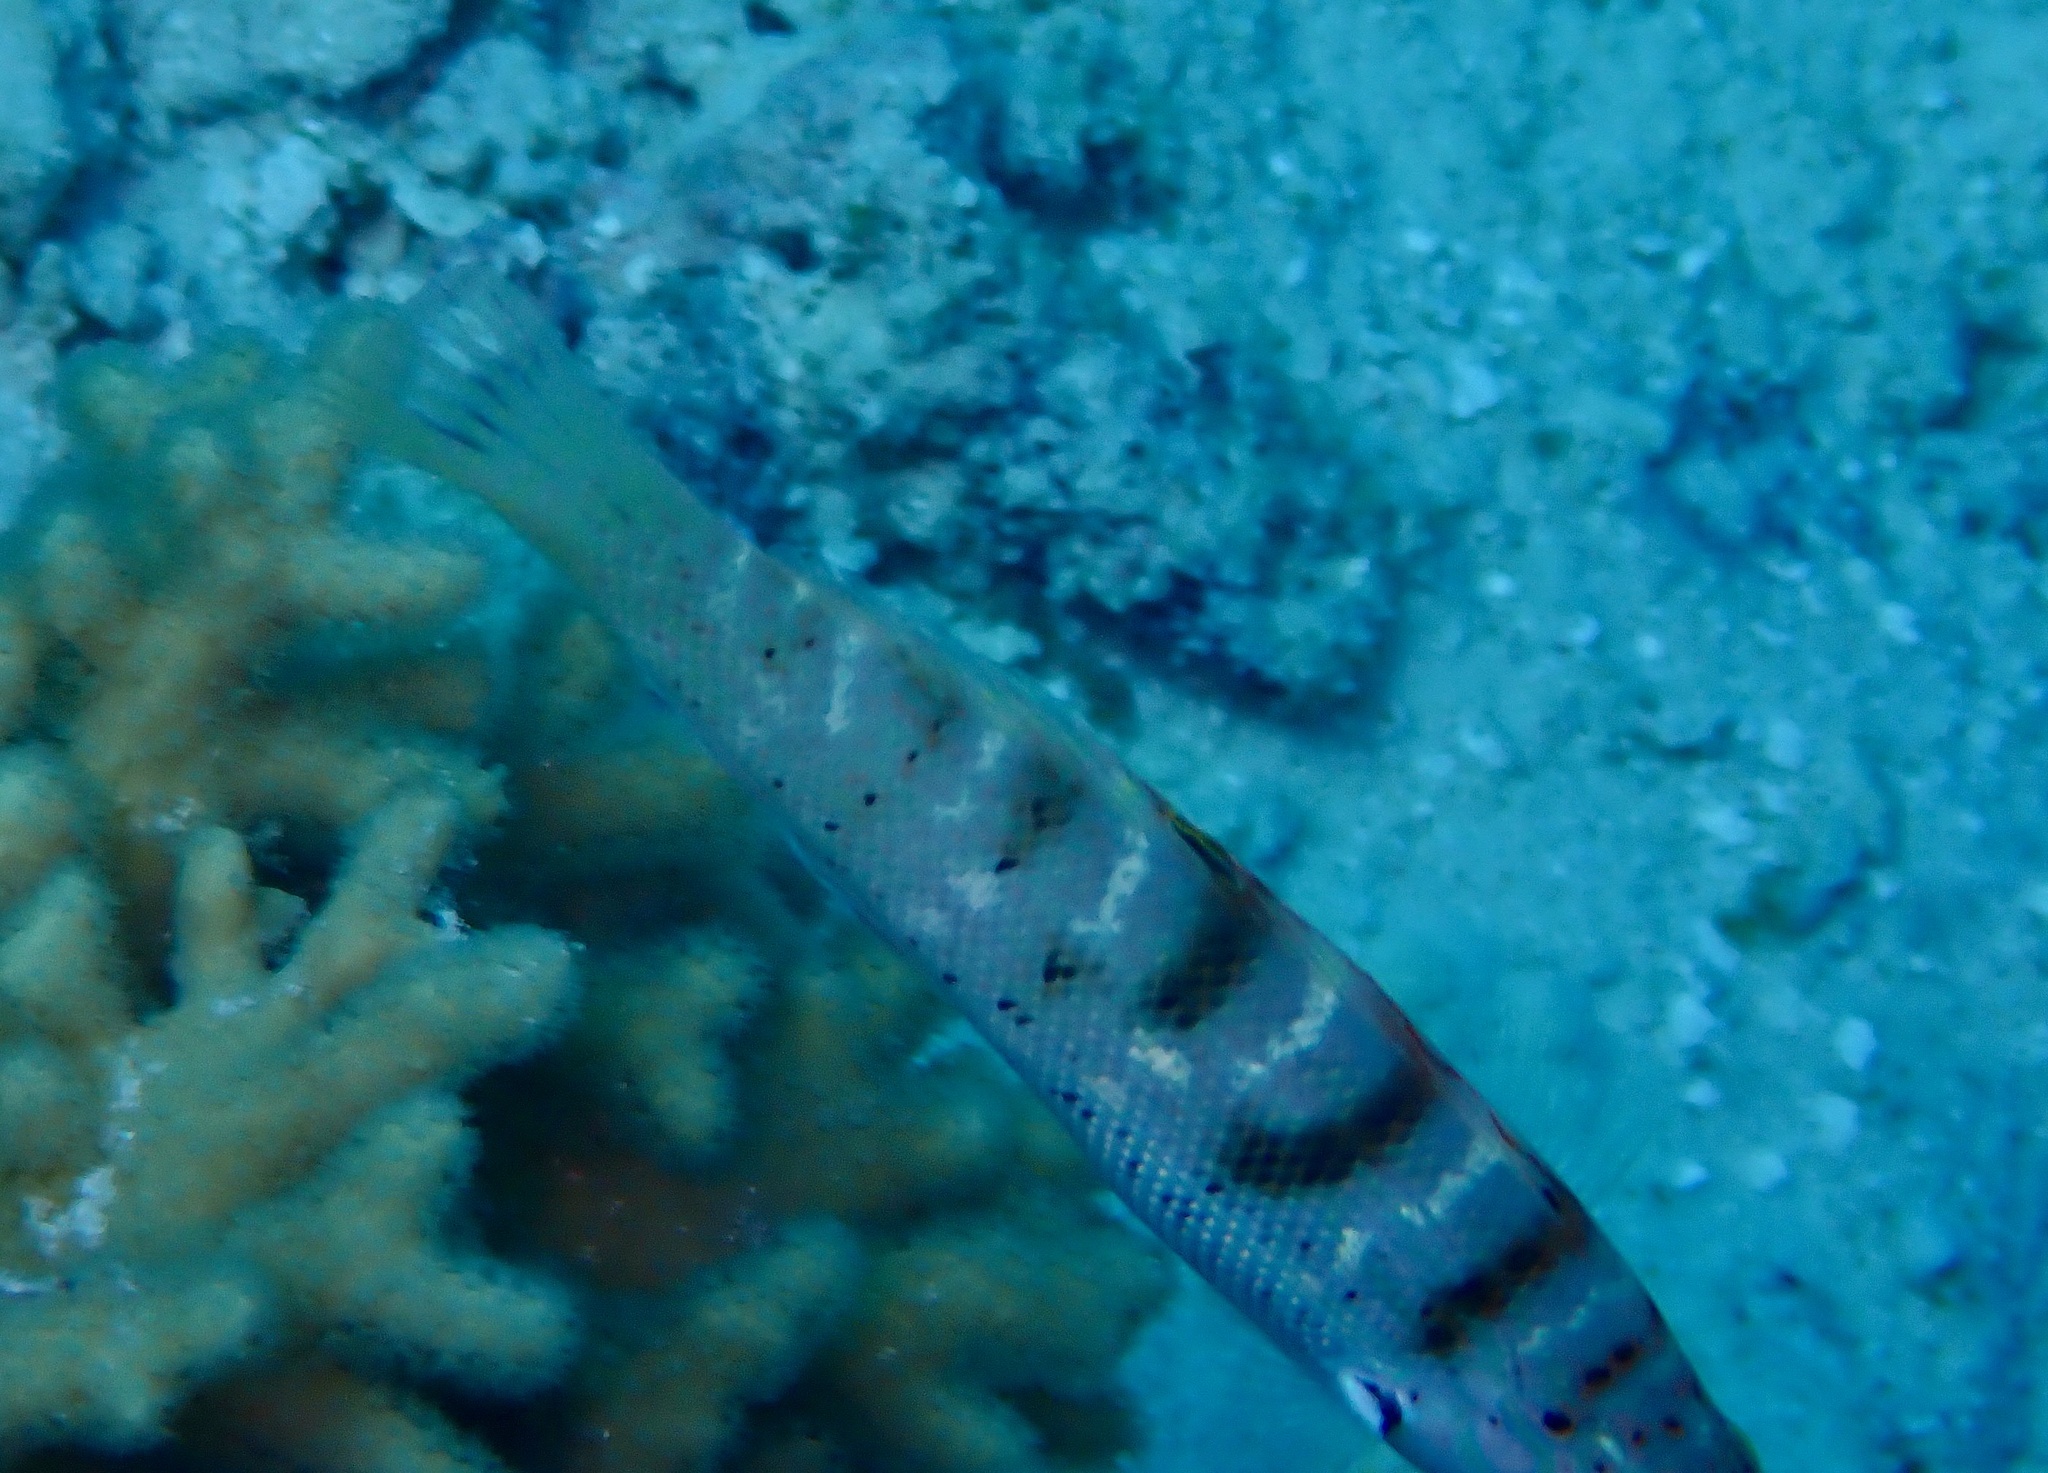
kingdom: Animalia
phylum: Chordata
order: Perciformes
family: Labridae
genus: Coris
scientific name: Coris batuensis
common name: Batu coris
